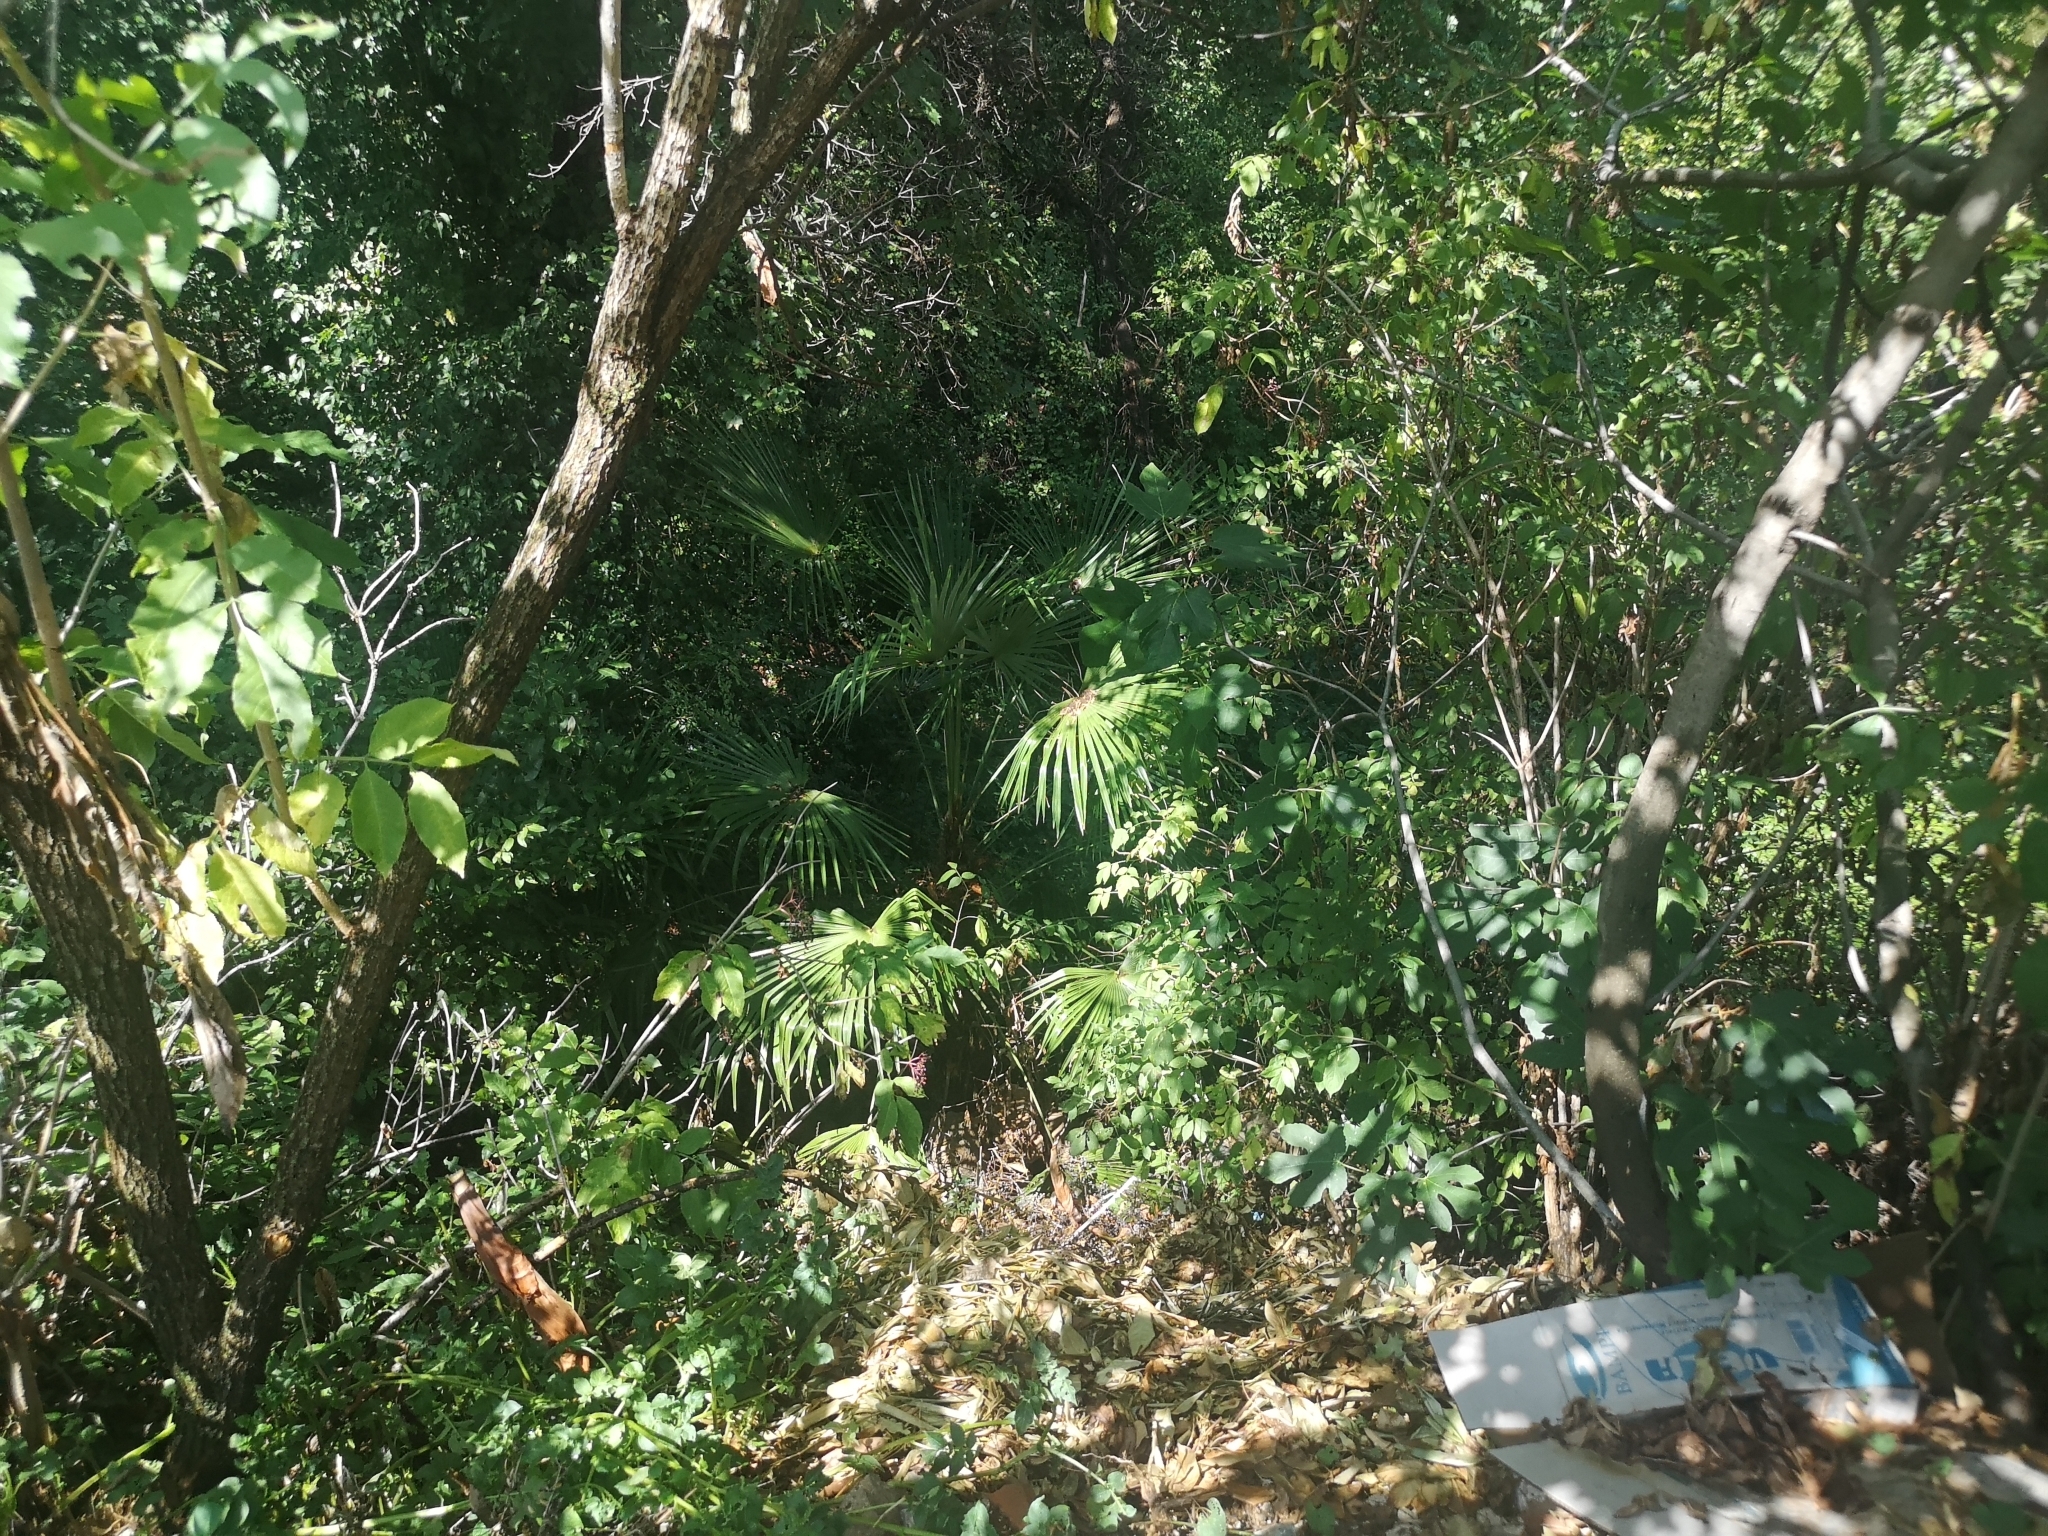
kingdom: Plantae
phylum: Tracheophyta
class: Liliopsida
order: Arecales
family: Arecaceae
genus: Trachycarpus
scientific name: Trachycarpus fortunei
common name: Chusan palm
